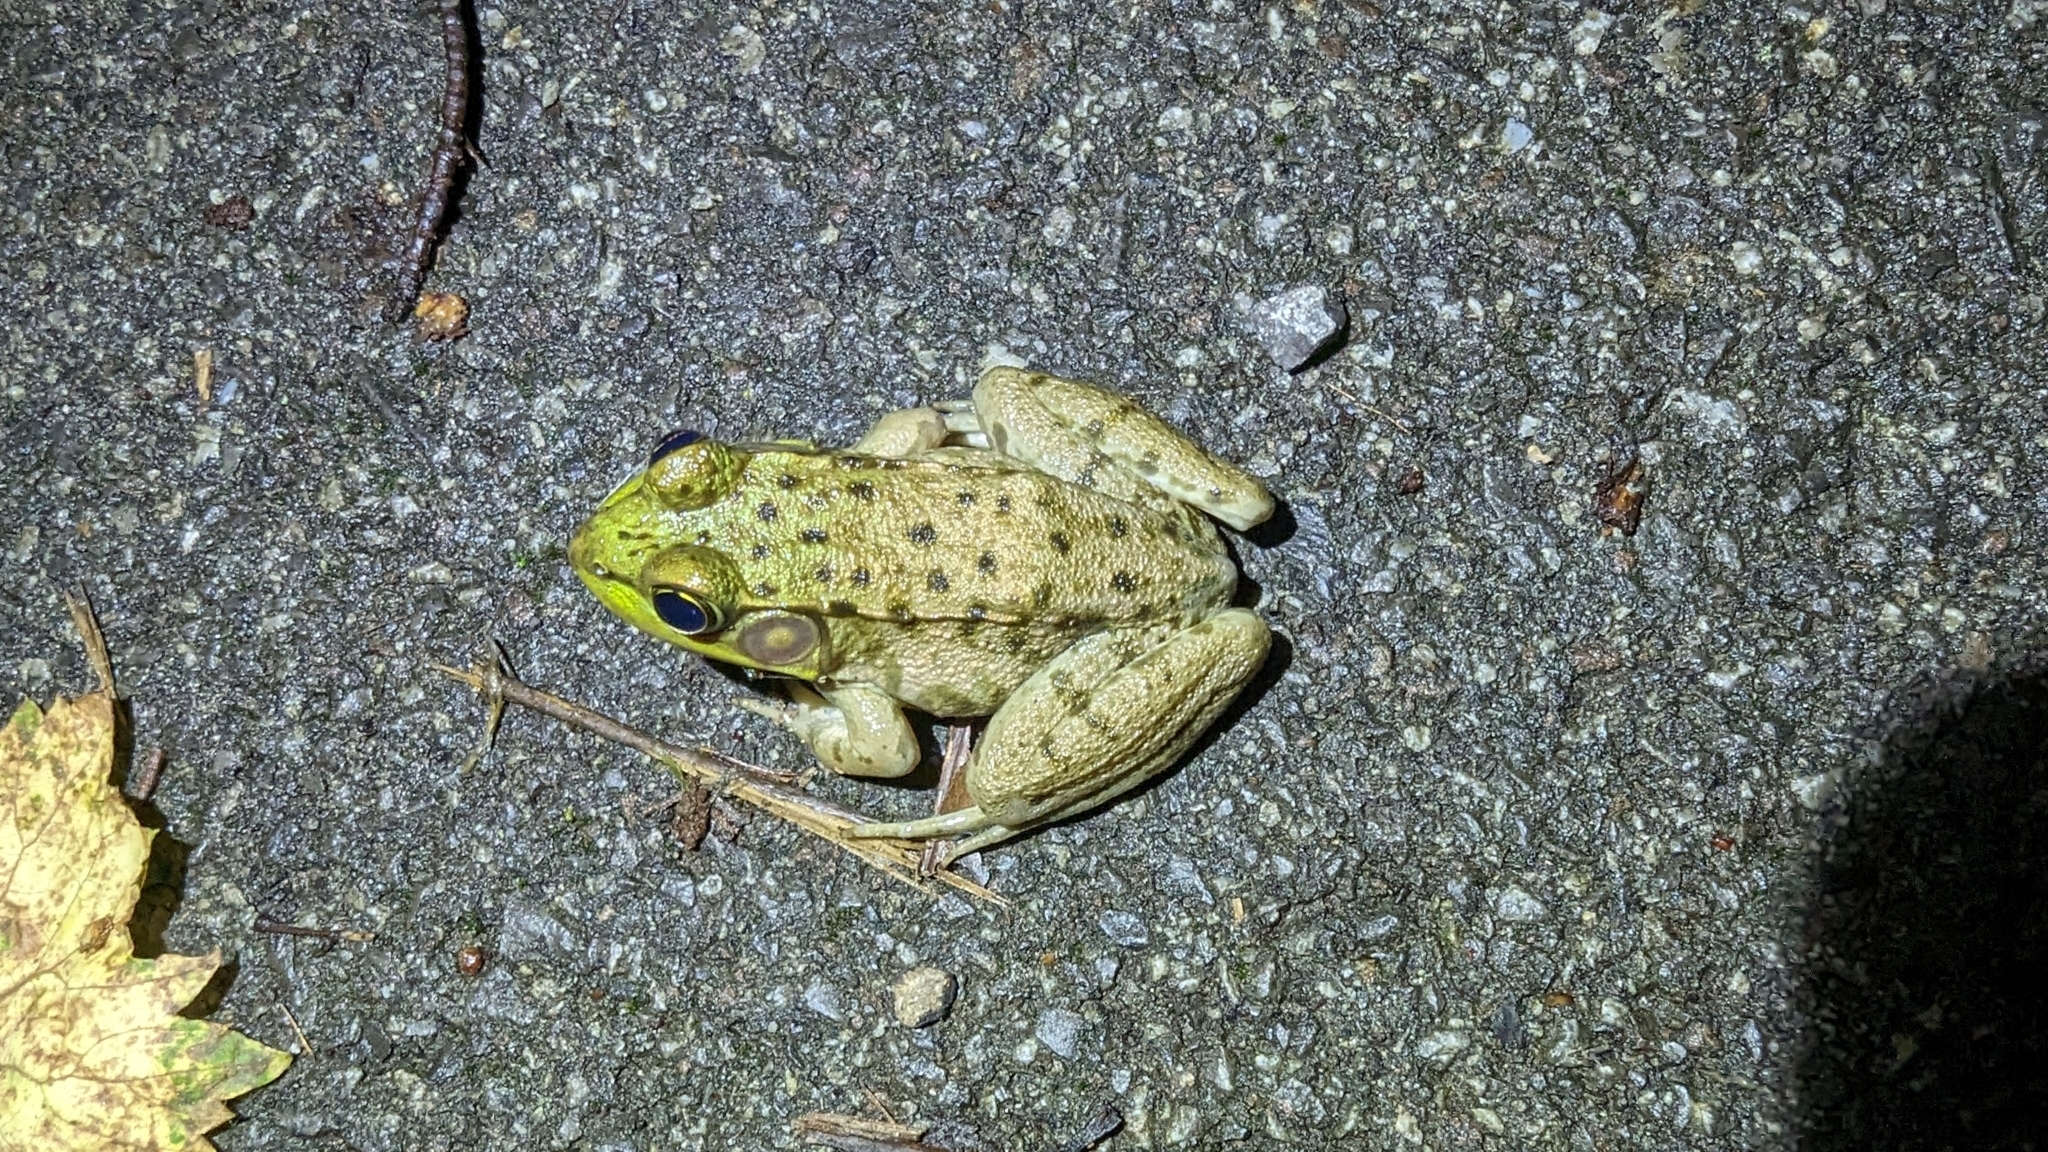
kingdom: Animalia
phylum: Chordata
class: Amphibia
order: Anura
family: Ranidae
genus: Lithobates
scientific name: Lithobates clamitans
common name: Green frog
